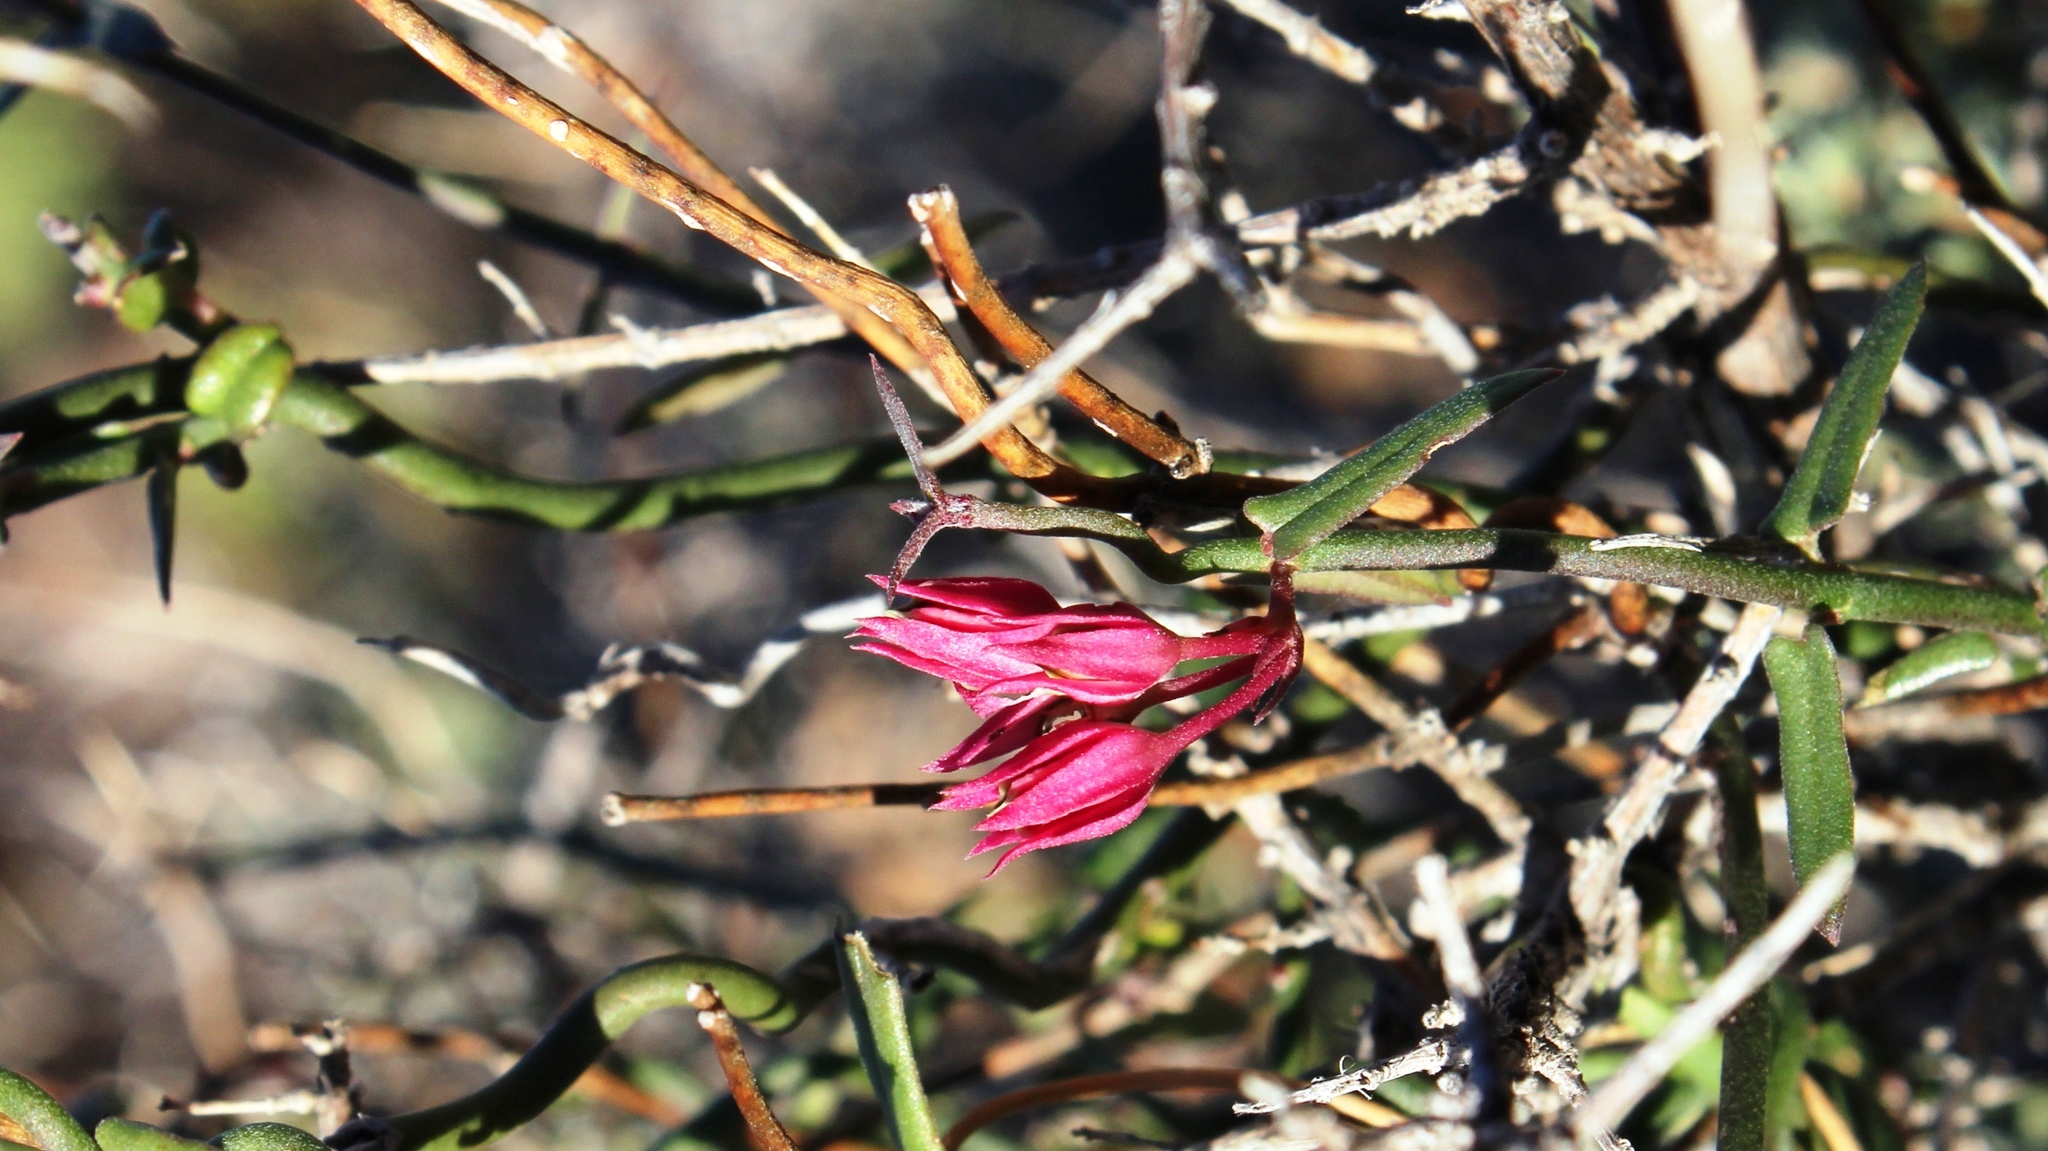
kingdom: Plantae
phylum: Tracheophyta
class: Magnoliopsida
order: Gentianales
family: Apocynaceae
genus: Microloma
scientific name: Microloma sagittatum
